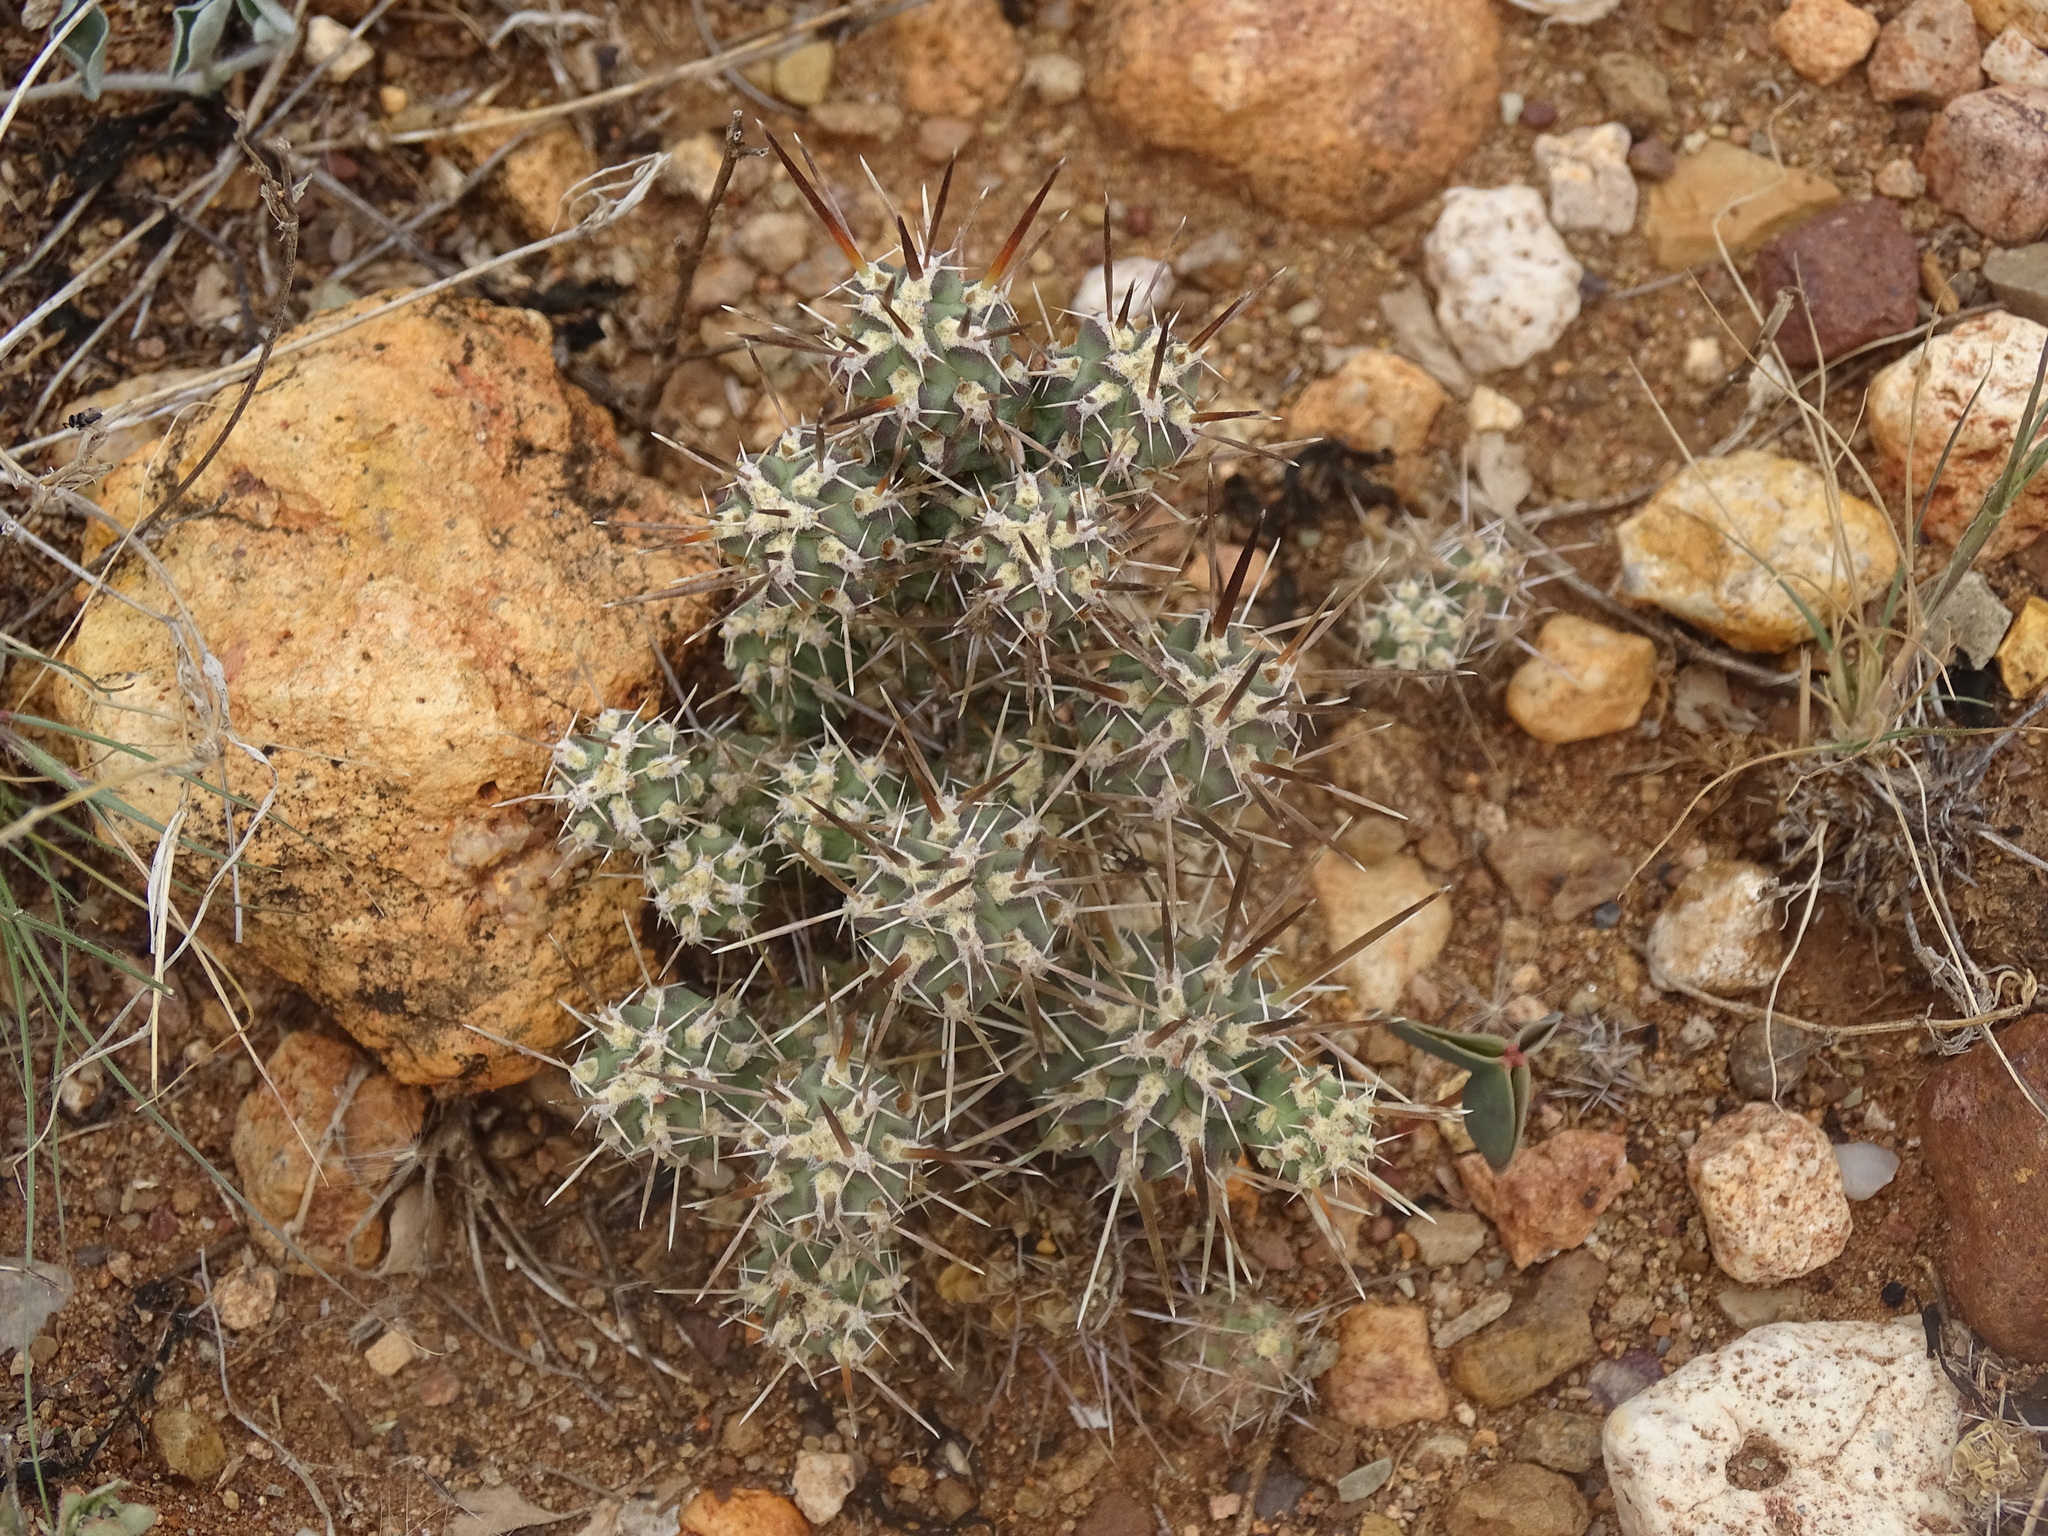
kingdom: Plantae
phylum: Tracheophyta
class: Magnoliopsida
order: Caryophyllales
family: Cactaceae
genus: Cylindropuntia
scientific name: Cylindropuntia tunicata
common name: Sheathed cholla
